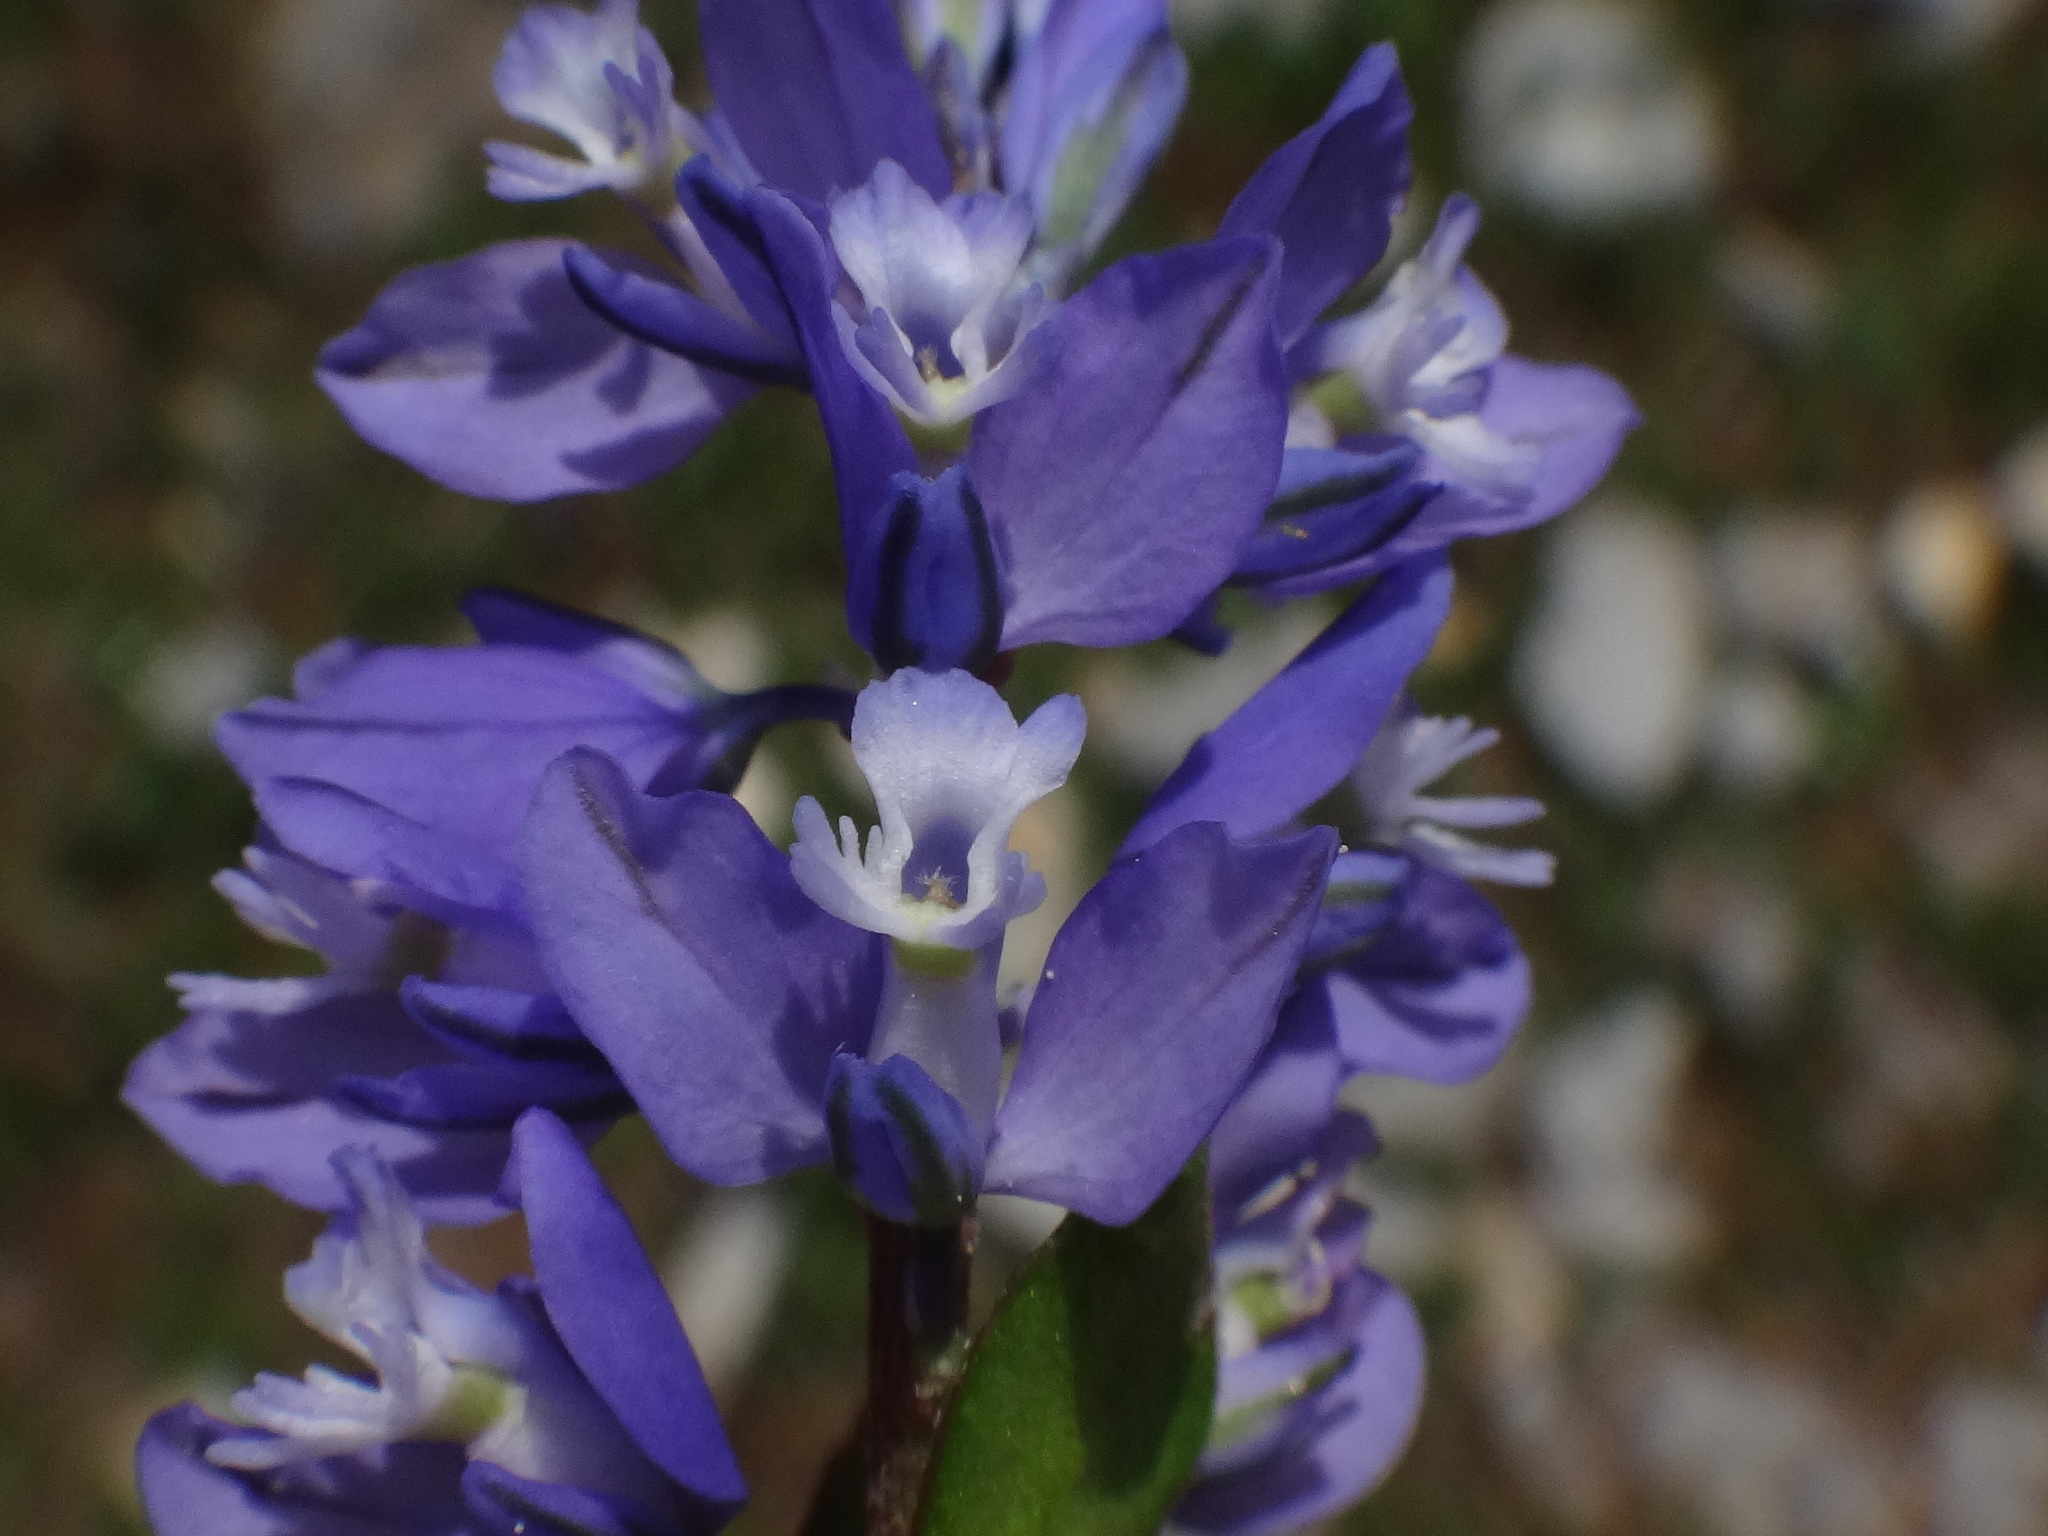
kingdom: Plantae
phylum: Tracheophyta
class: Magnoliopsida
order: Fabales
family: Polygalaceae
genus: Polygala
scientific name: Polygala amara
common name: Milkwort
